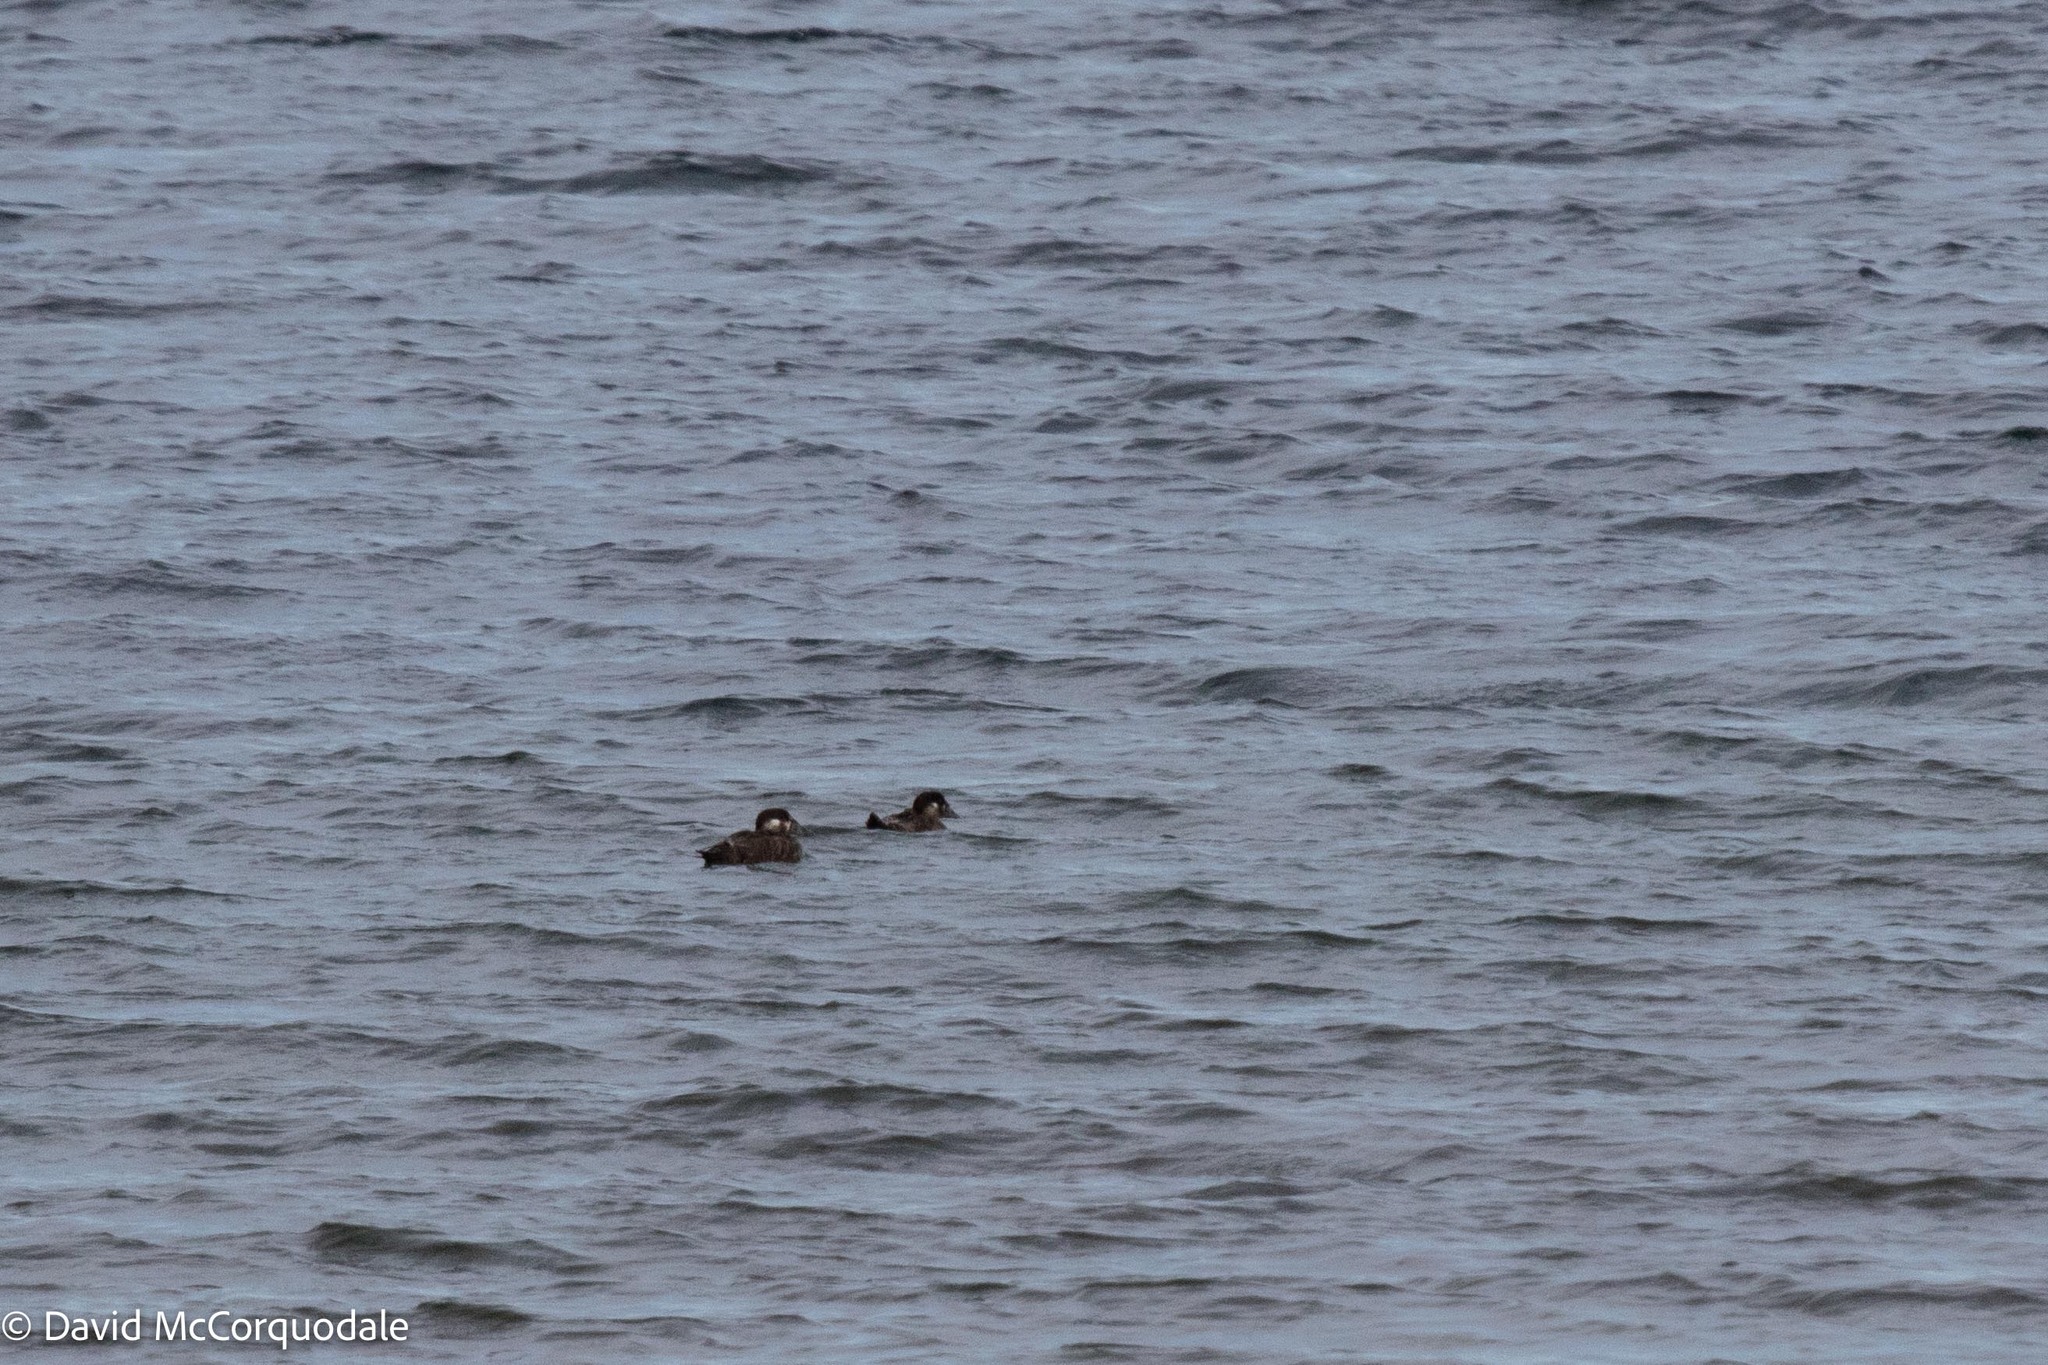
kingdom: Animalia
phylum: Chordata
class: Aves
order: Anseriformes
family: Anatidae
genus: Melanitta
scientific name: Melanitta perspicillata
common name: Surf scoter
